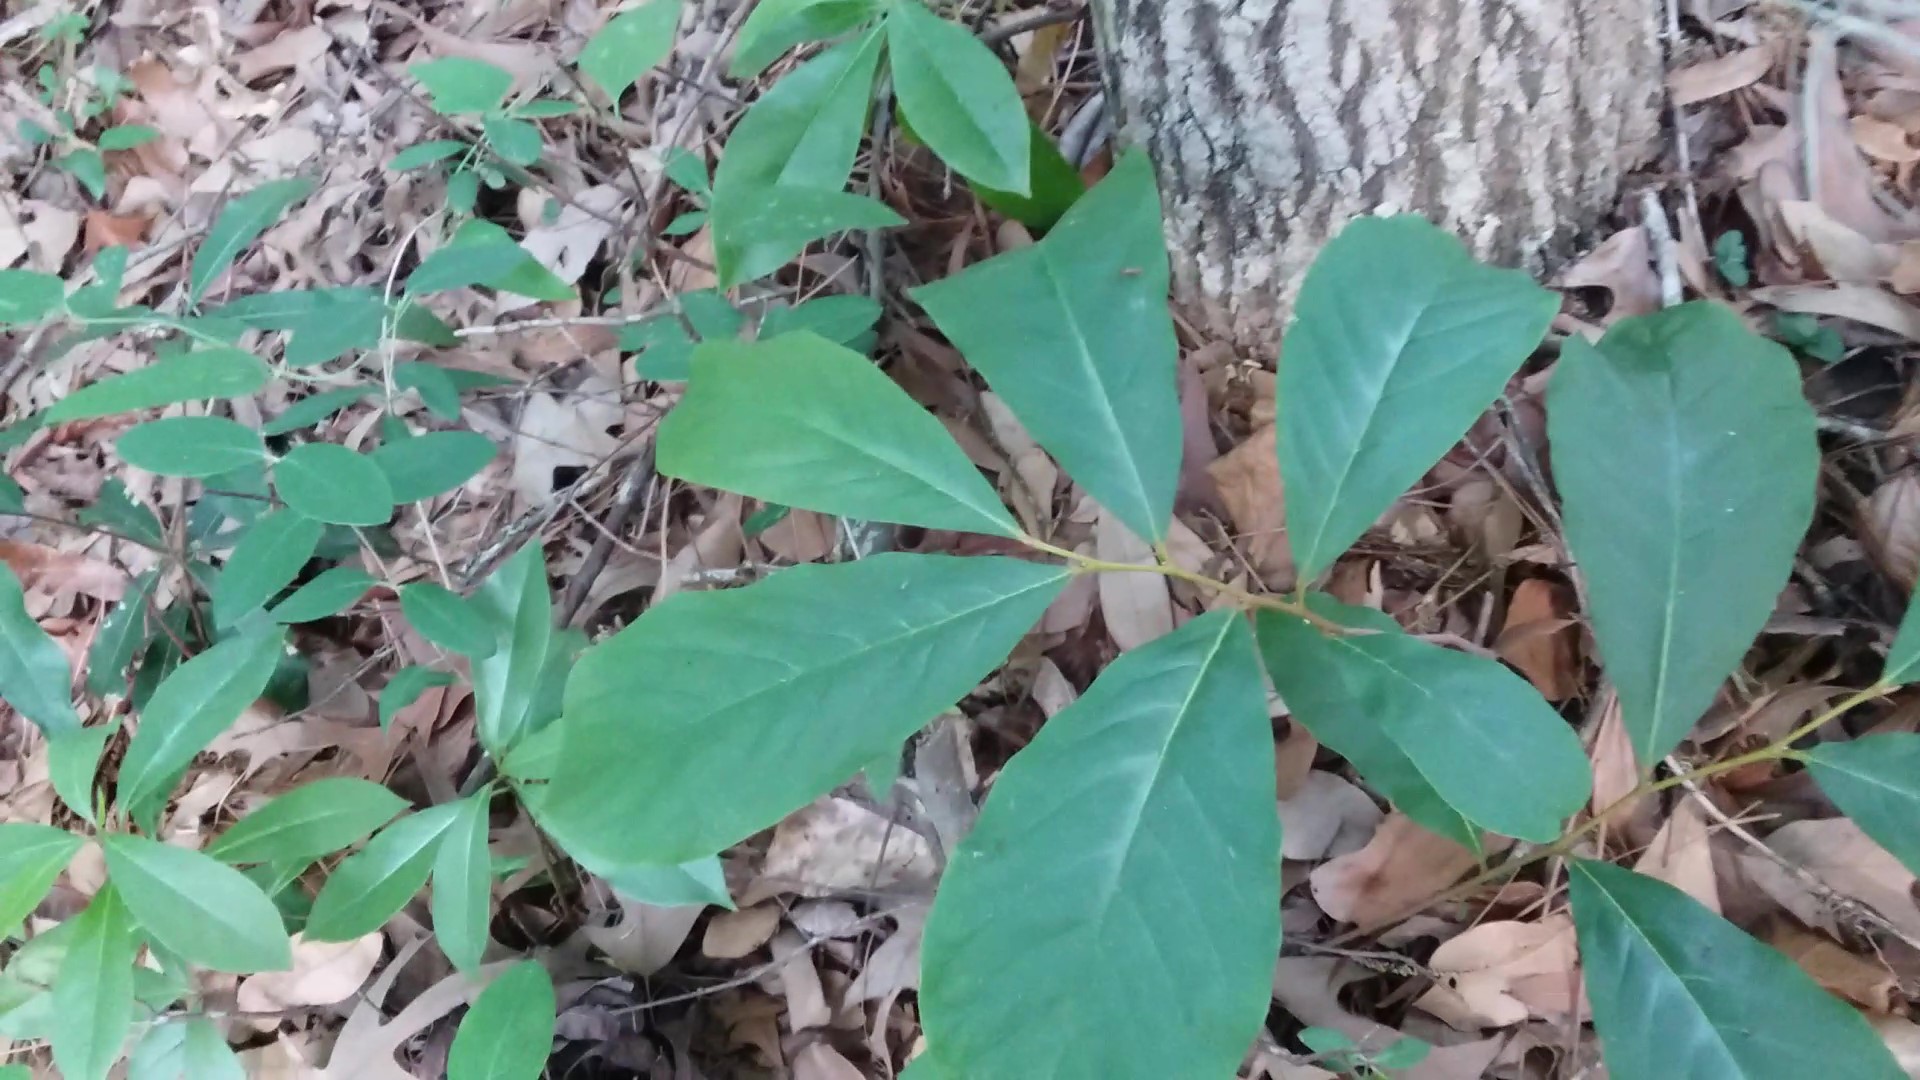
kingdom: Plantae
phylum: Tracheophyta
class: Magnoliopsida
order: Magnoliales
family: Annonaceae
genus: Asimina
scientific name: Asimina parviflora
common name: Dwarf pawpaw
